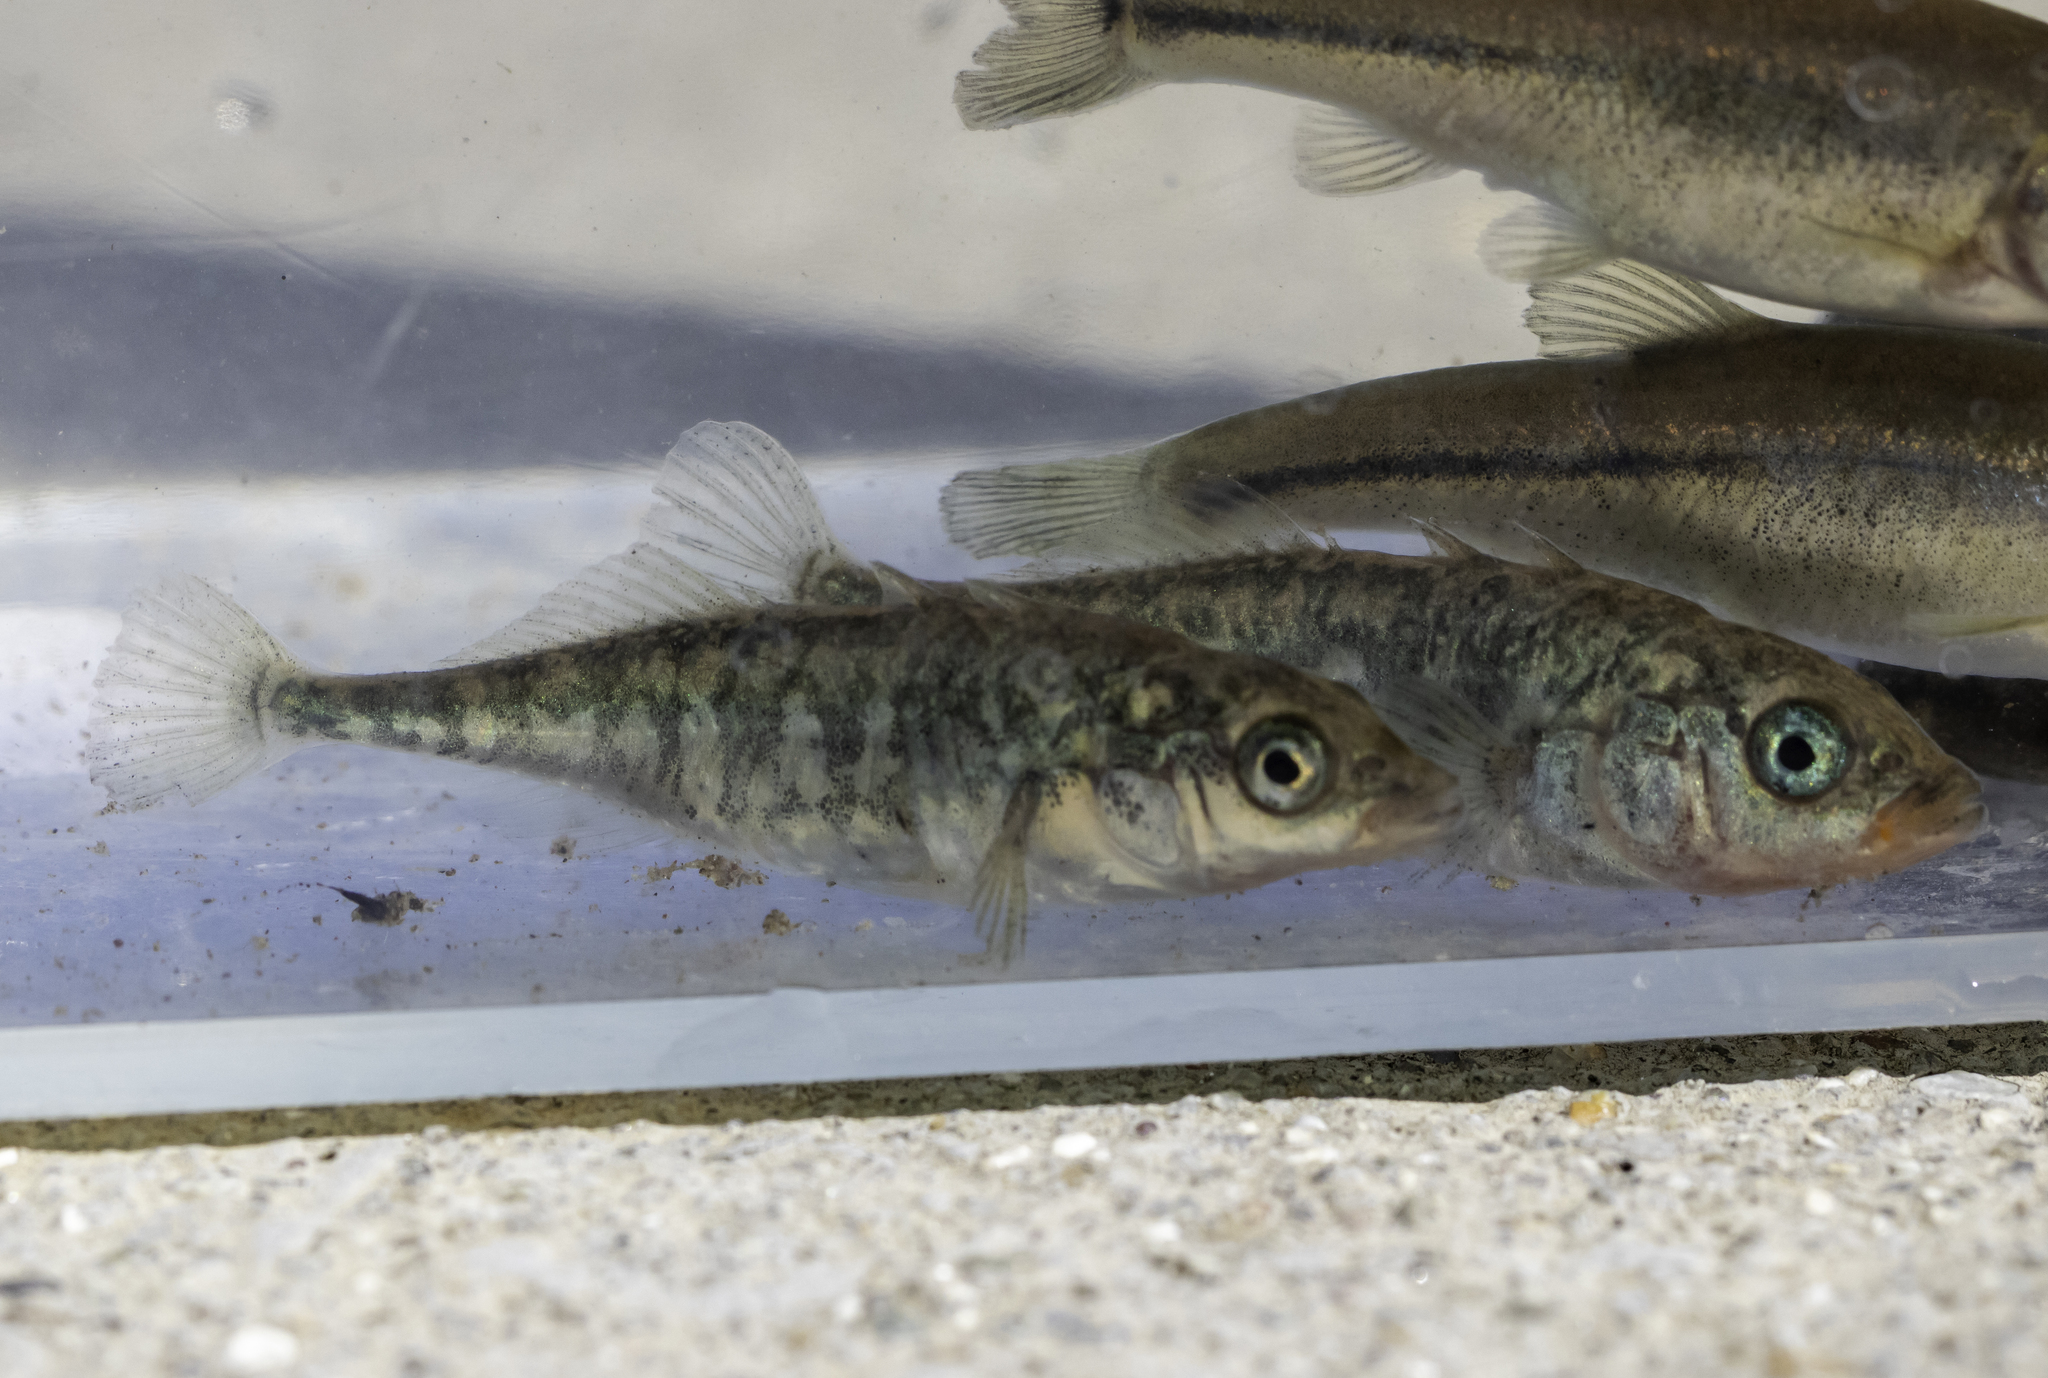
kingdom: Animalia
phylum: Chordata
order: Gasterosteiformes
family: Gasterosteidae
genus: Gasterosteus
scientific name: Gasterosteus aculeatus
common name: Three-spined stickleback
